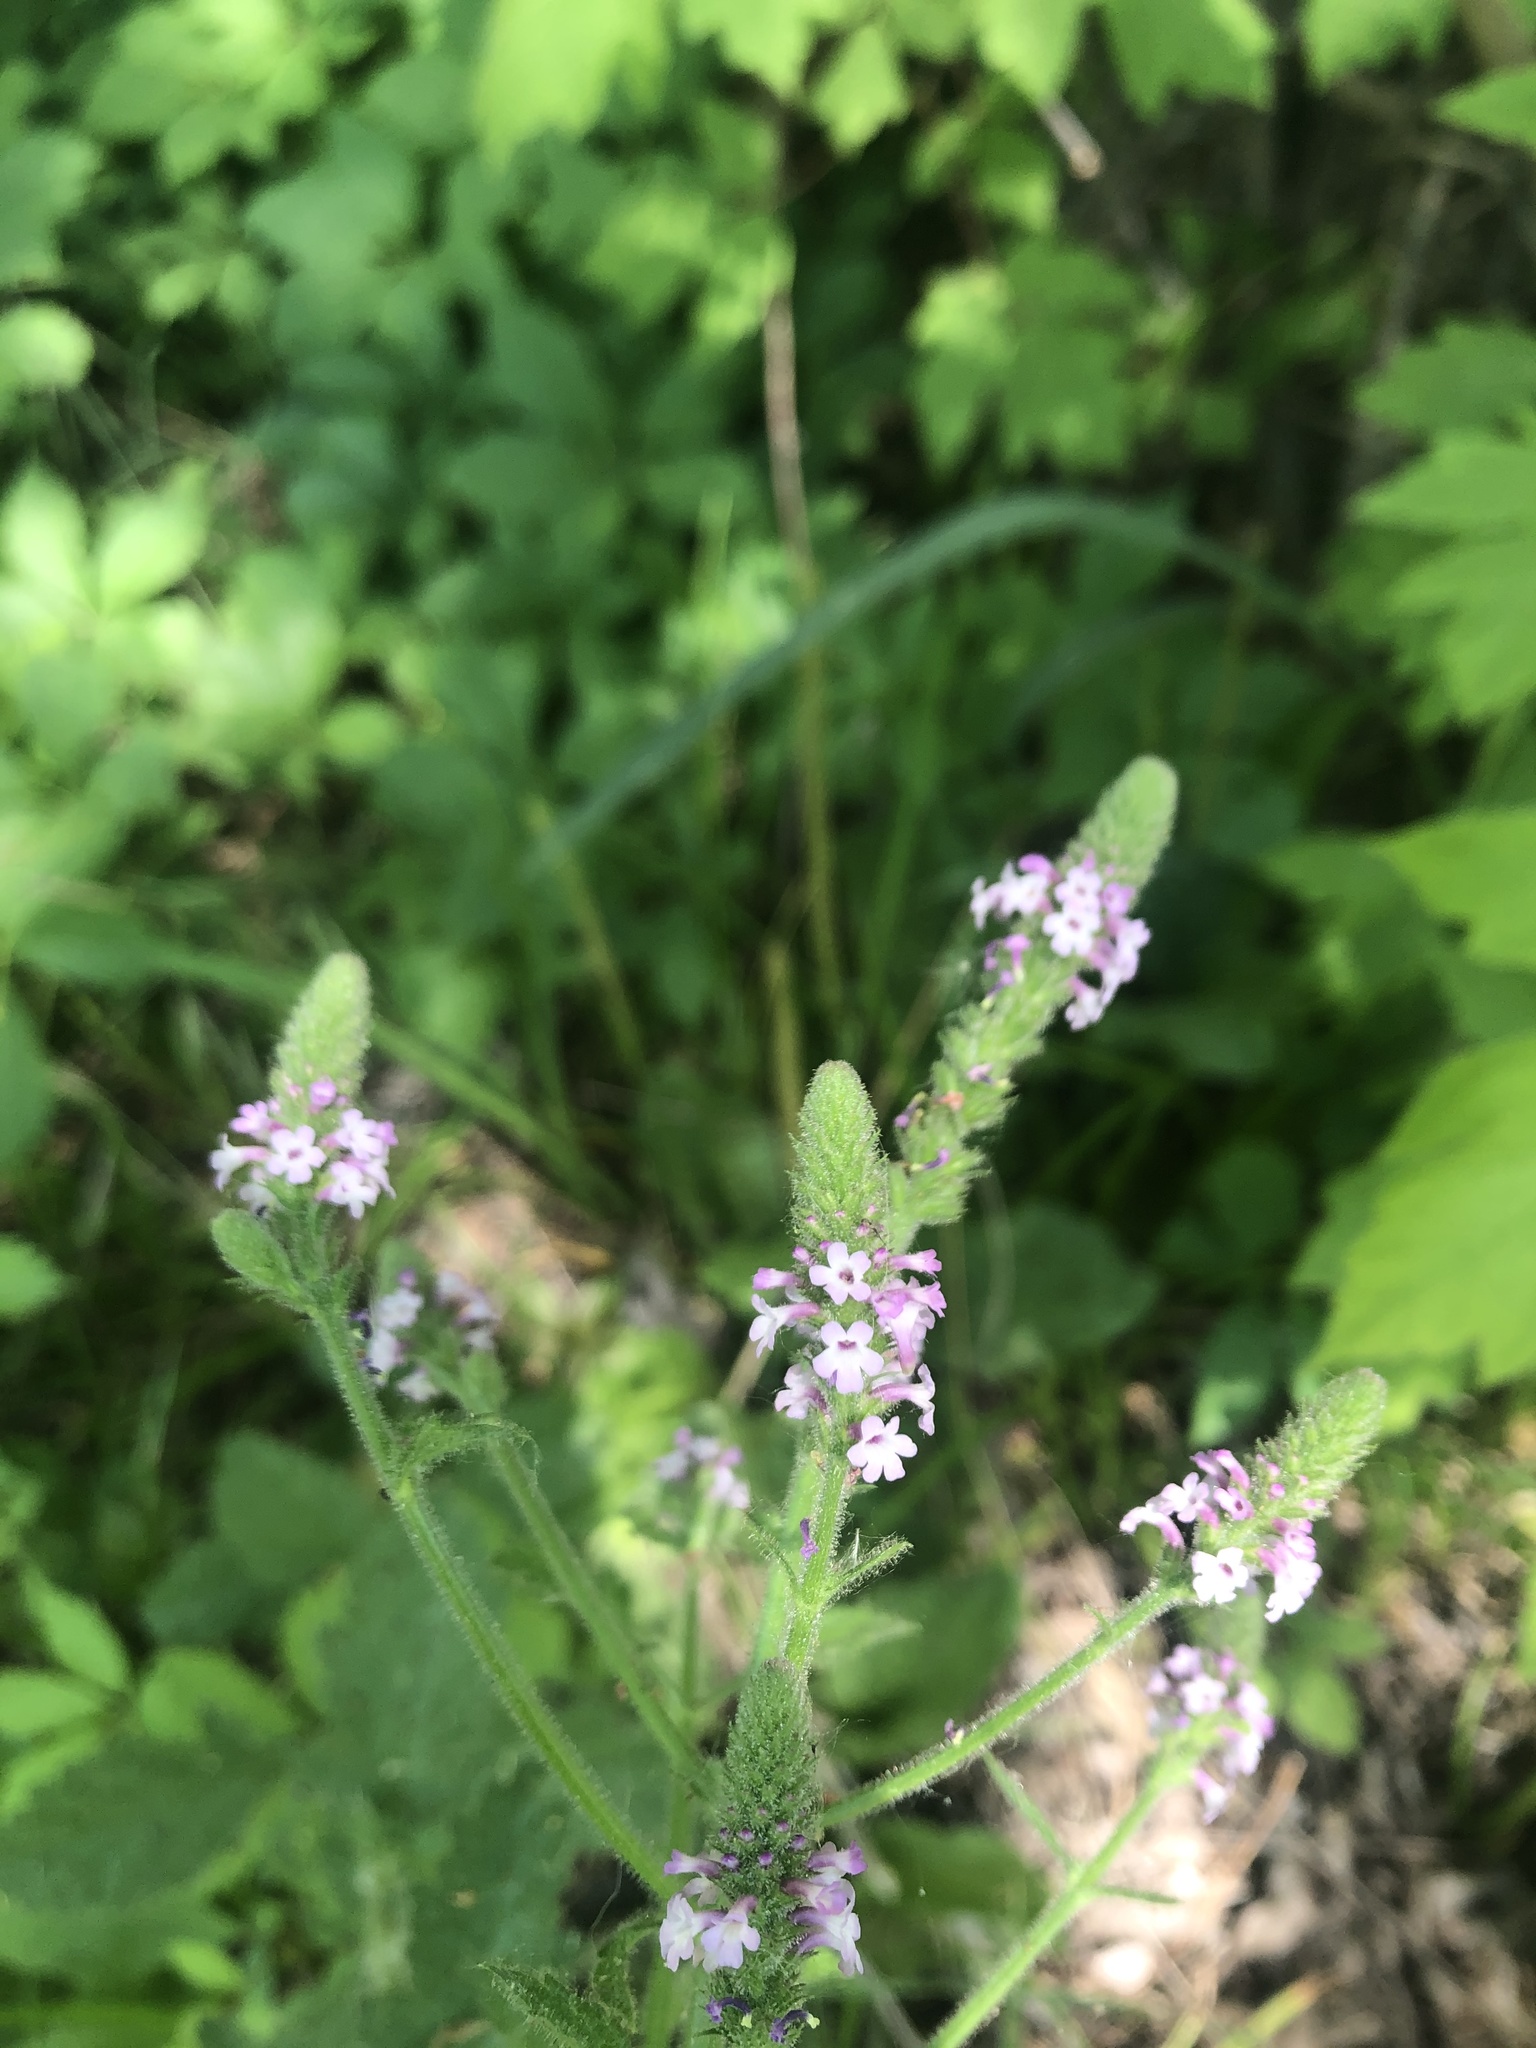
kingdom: Plantae
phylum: Tracheophyta
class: Magnoliopsida
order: Lamiales
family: Verbenaceae
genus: Verbena
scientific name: Verbena lasiostachys
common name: Vervain
